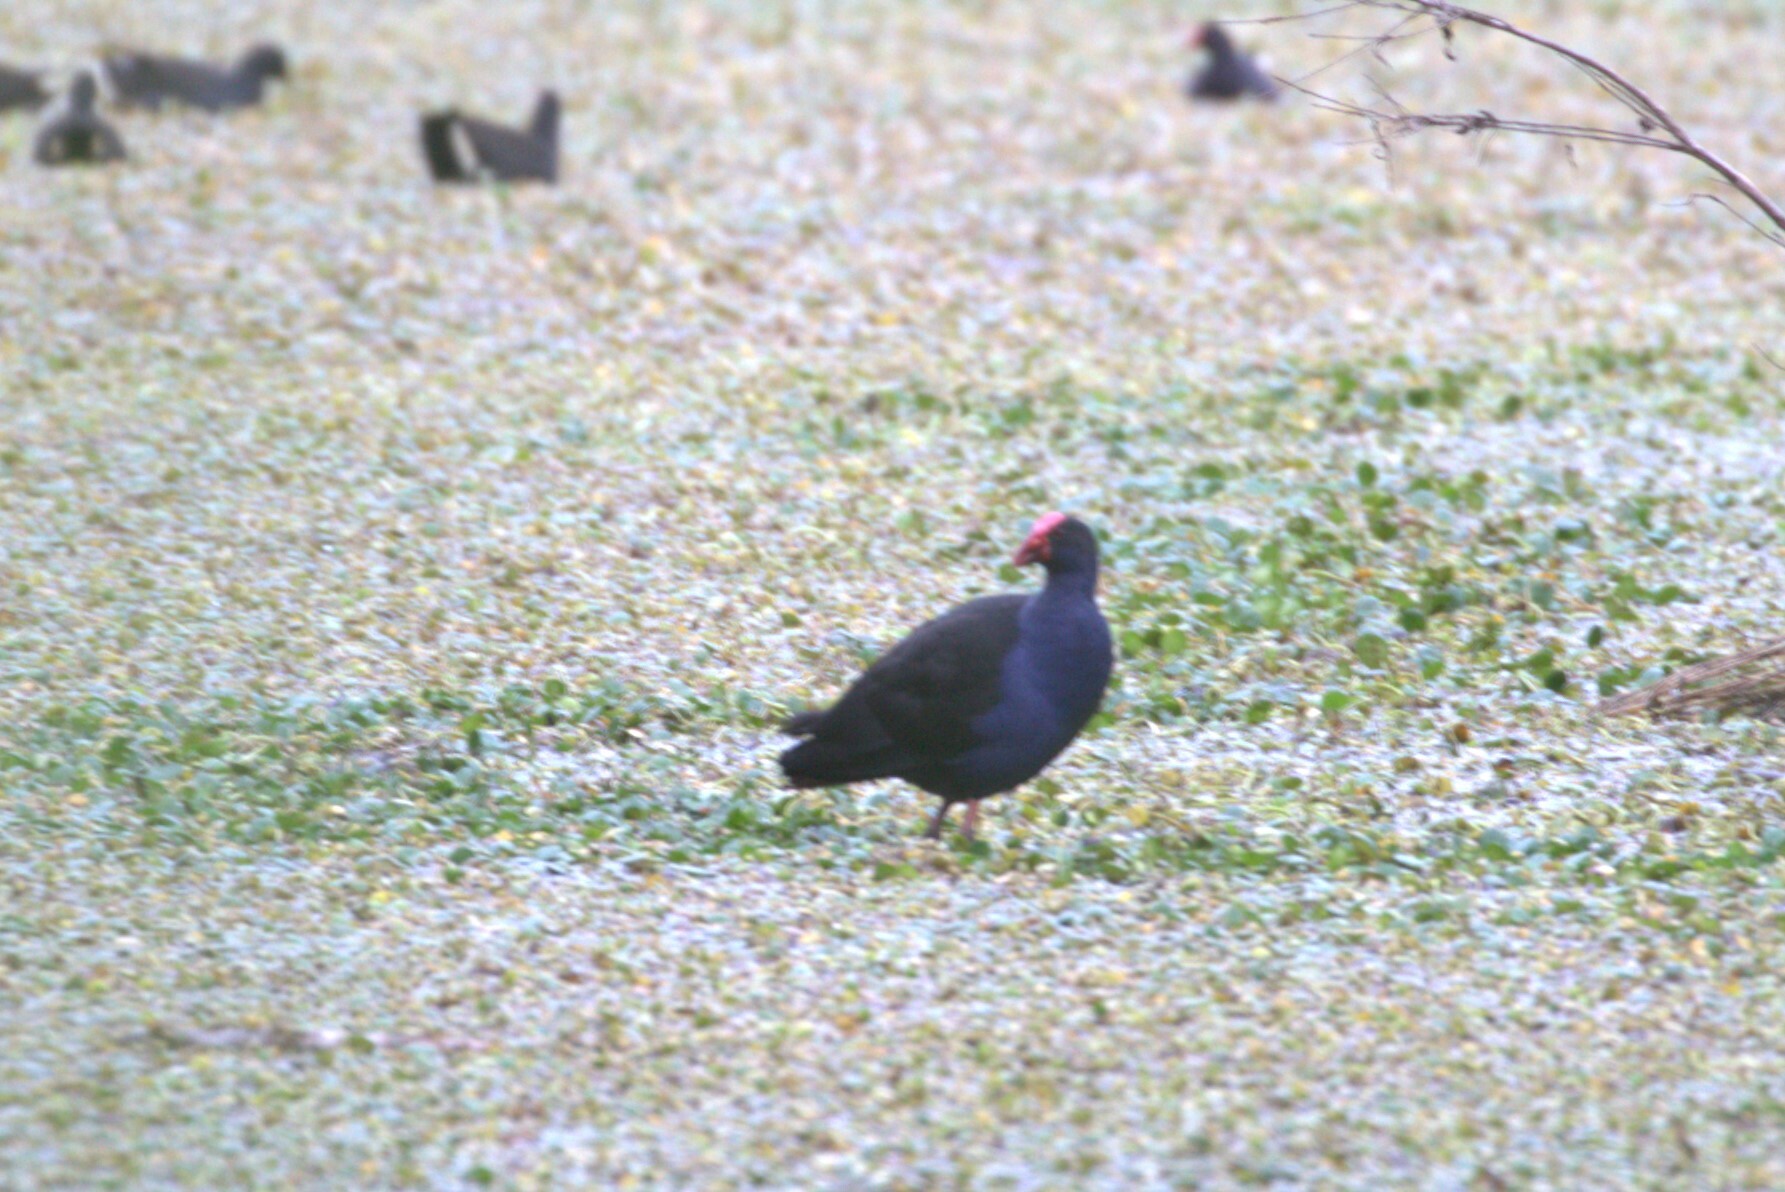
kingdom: Animalia
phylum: Chordata
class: Aves
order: Gruiformes
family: Rallidae
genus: Porphyrio
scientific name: Porphyrio melanotus
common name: Australasian swamphen
